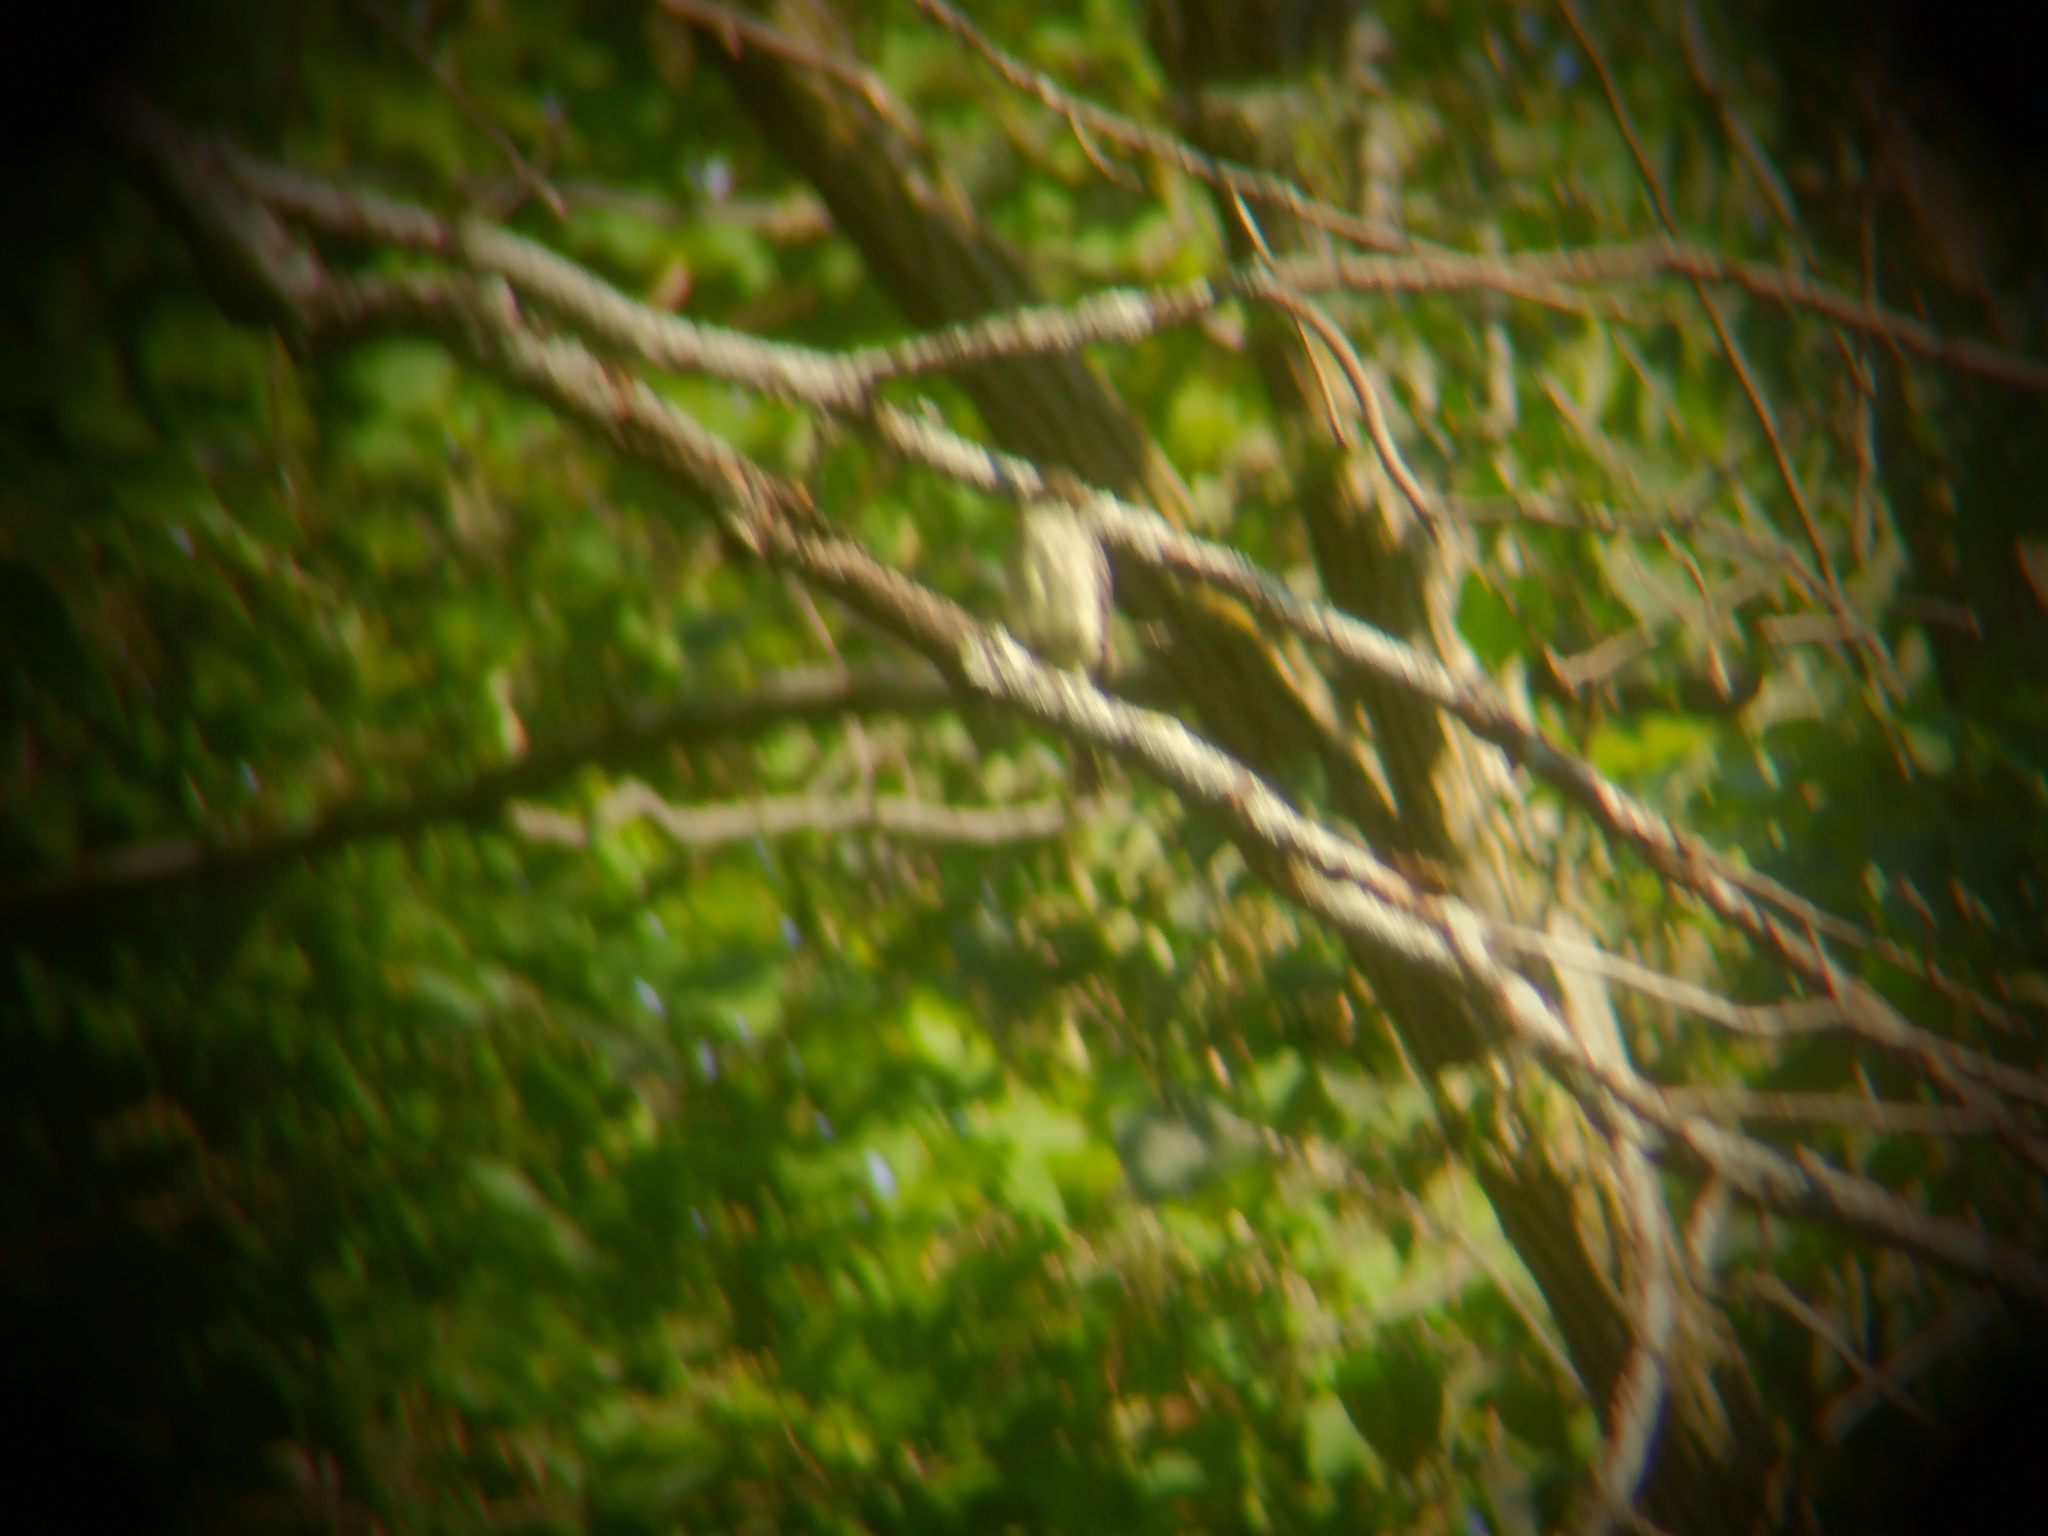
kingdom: Animalia
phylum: Chordata
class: Aves
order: Passeriformes
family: Tyrannidae
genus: Contopus
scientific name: Contopus virens
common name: Eastern wood-pewee
